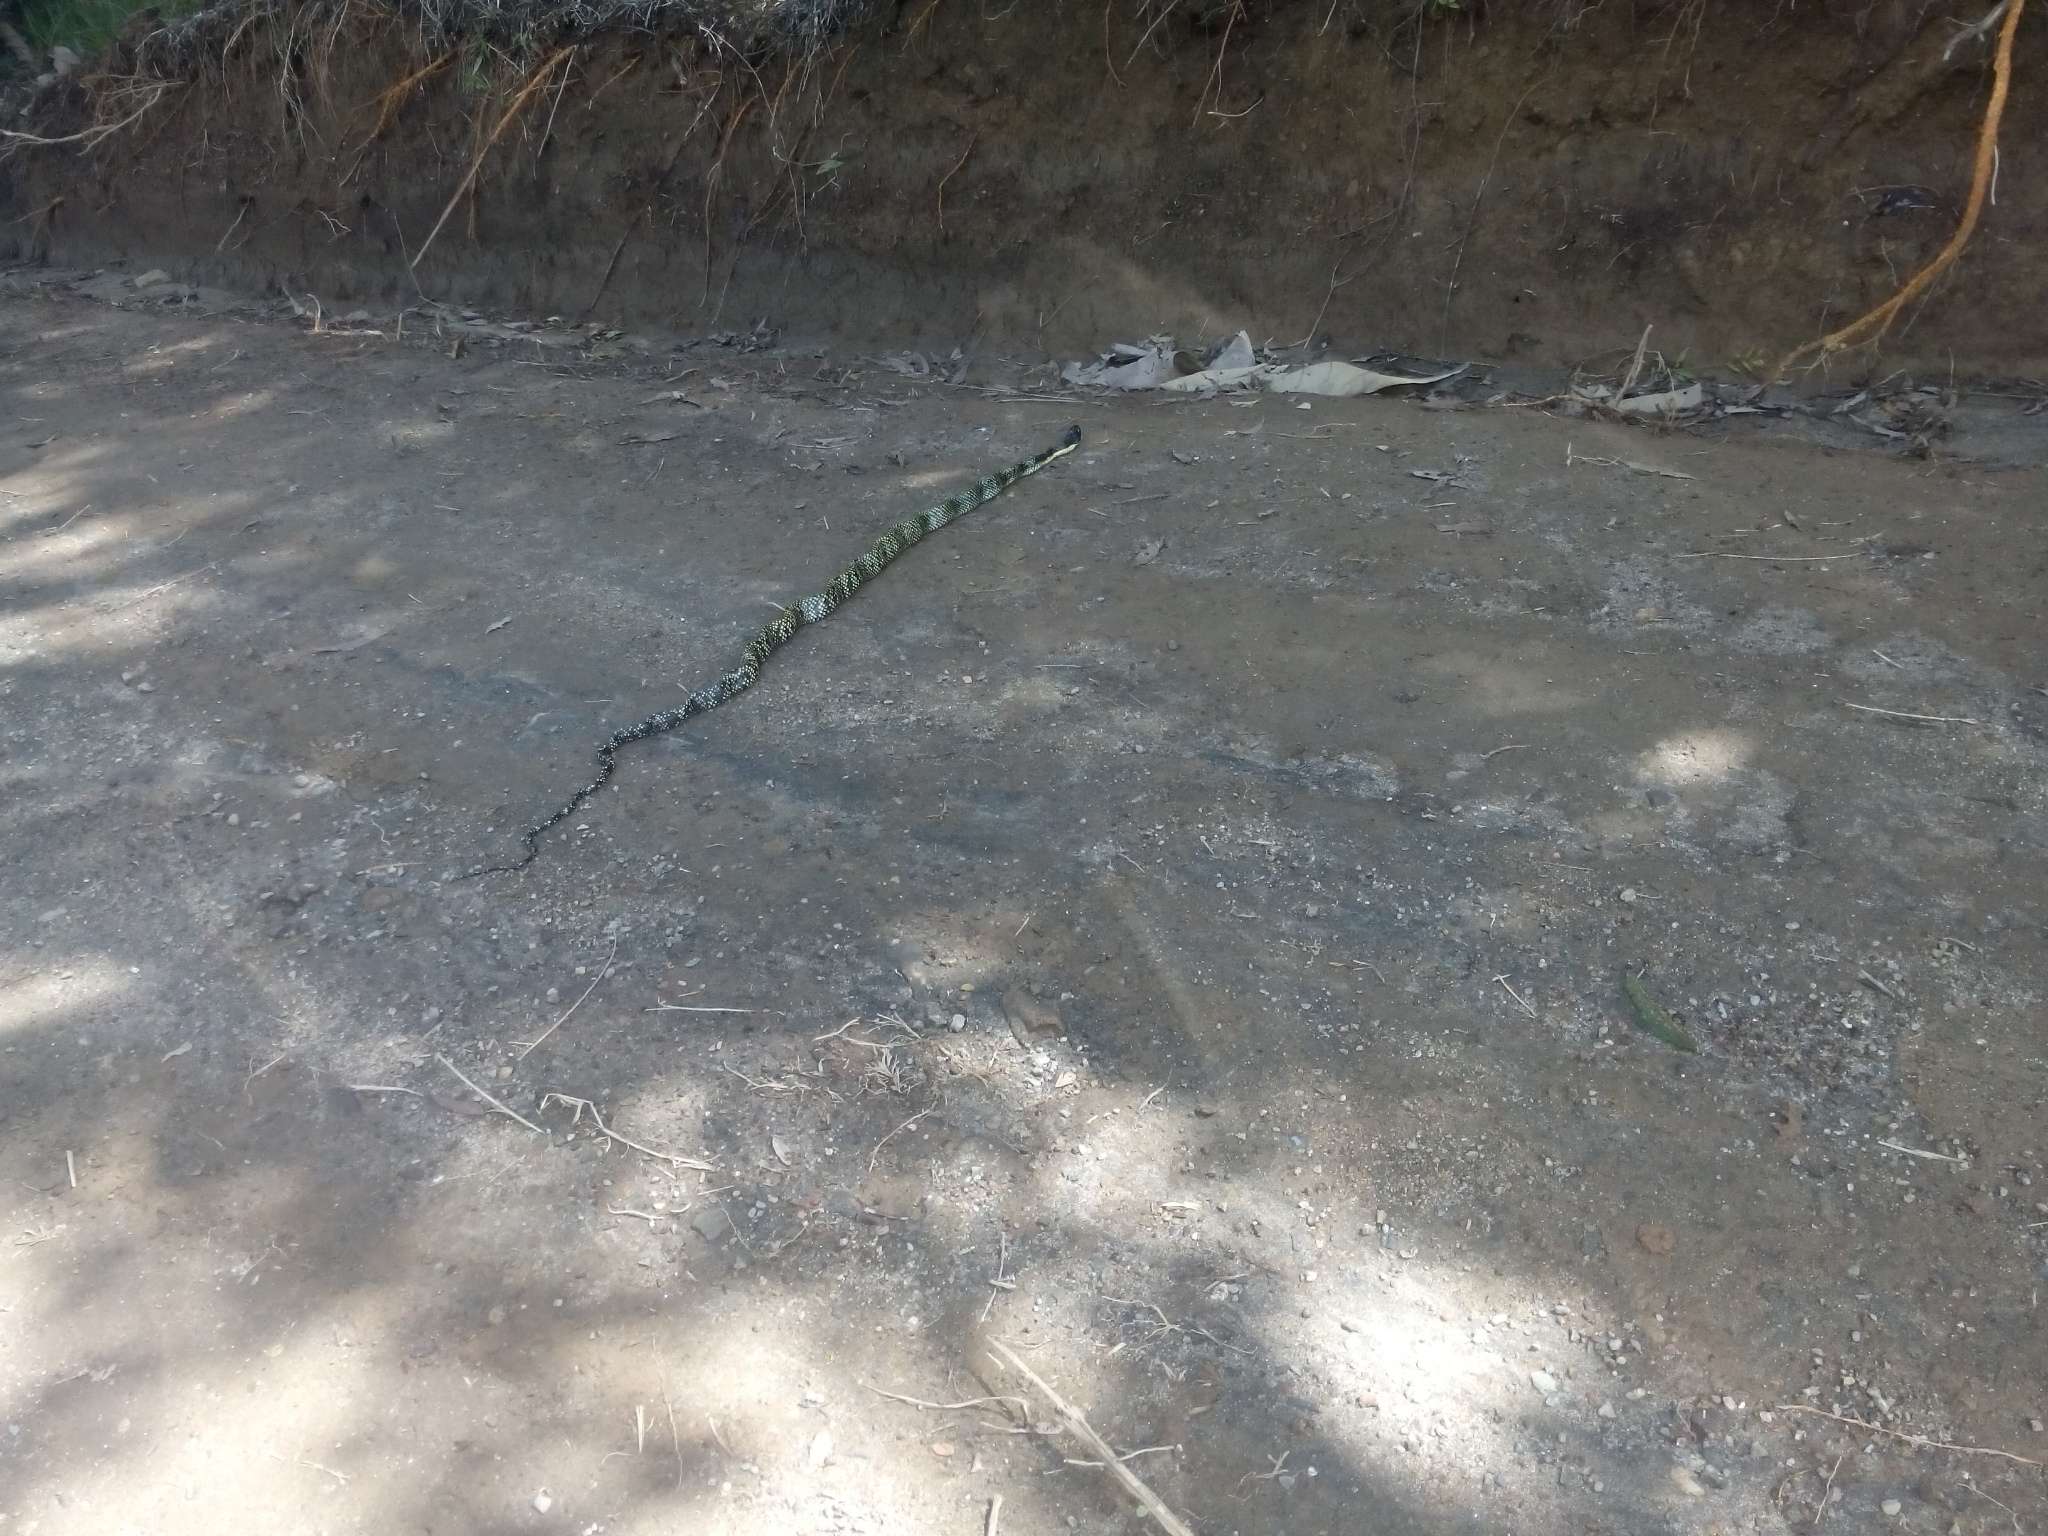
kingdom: Animalia
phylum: Chordata
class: Squamata
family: Colubridae
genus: Phrynonax
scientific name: Phrynonax shropshirei
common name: Shropshire's puffing snake
